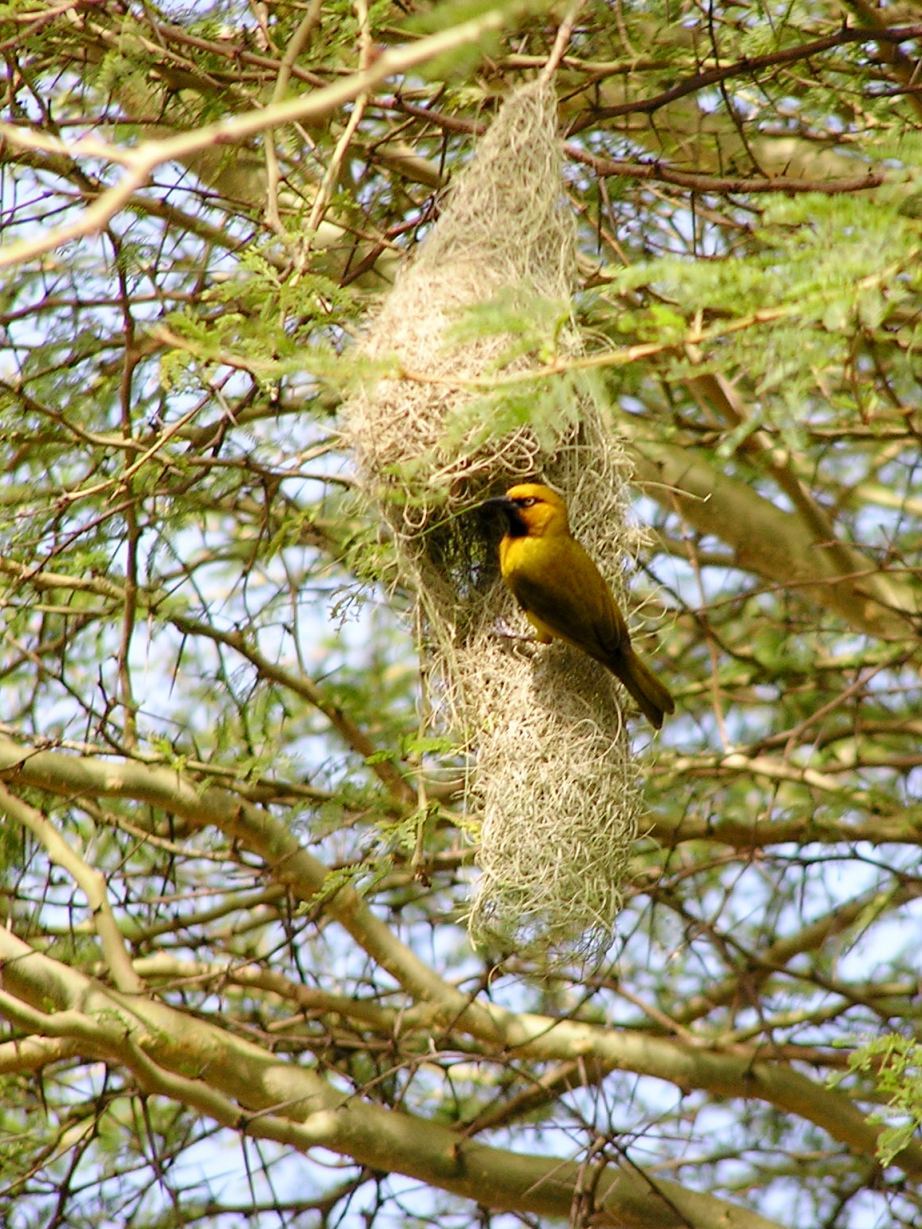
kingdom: Animalia
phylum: Chordata
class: Aves
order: Passeriformes
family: Ploceidae
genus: Ploceus
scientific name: Ploceus ocularis
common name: Spectacled weaver
